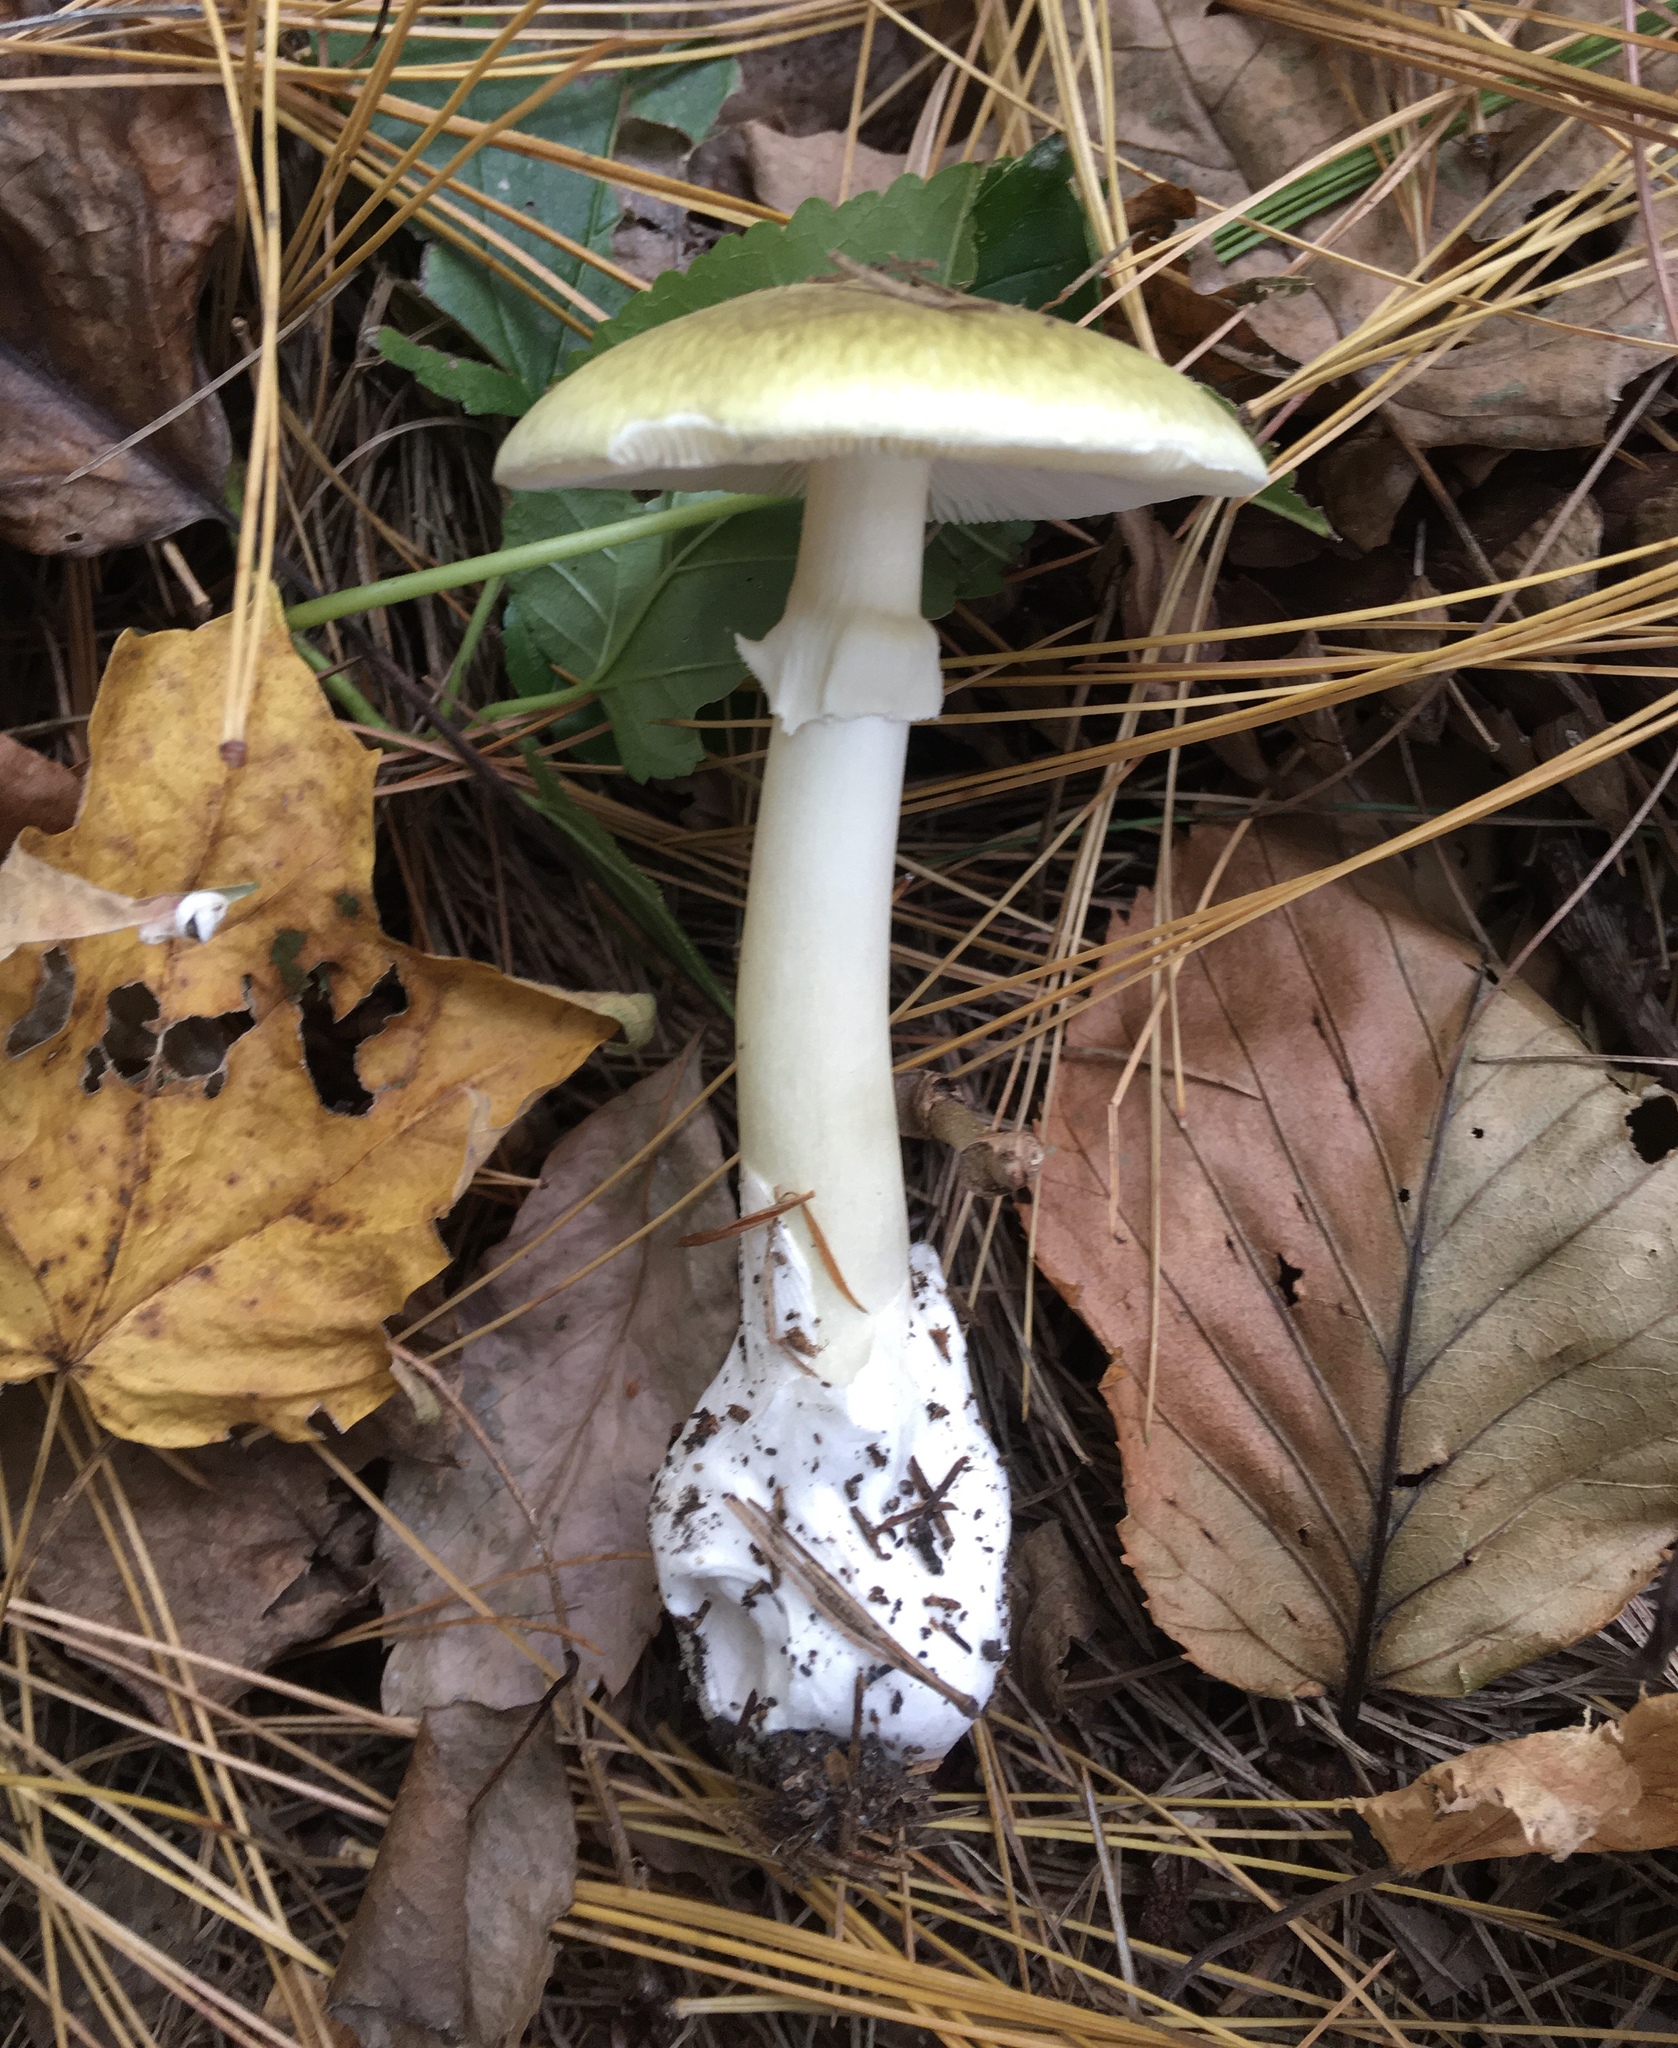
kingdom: Fungi
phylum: Basidiomycota
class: Agaricomycetes
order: Agaricales
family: Amanitaceae
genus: Amanita
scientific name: Amanita phalloides
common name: Death cap
